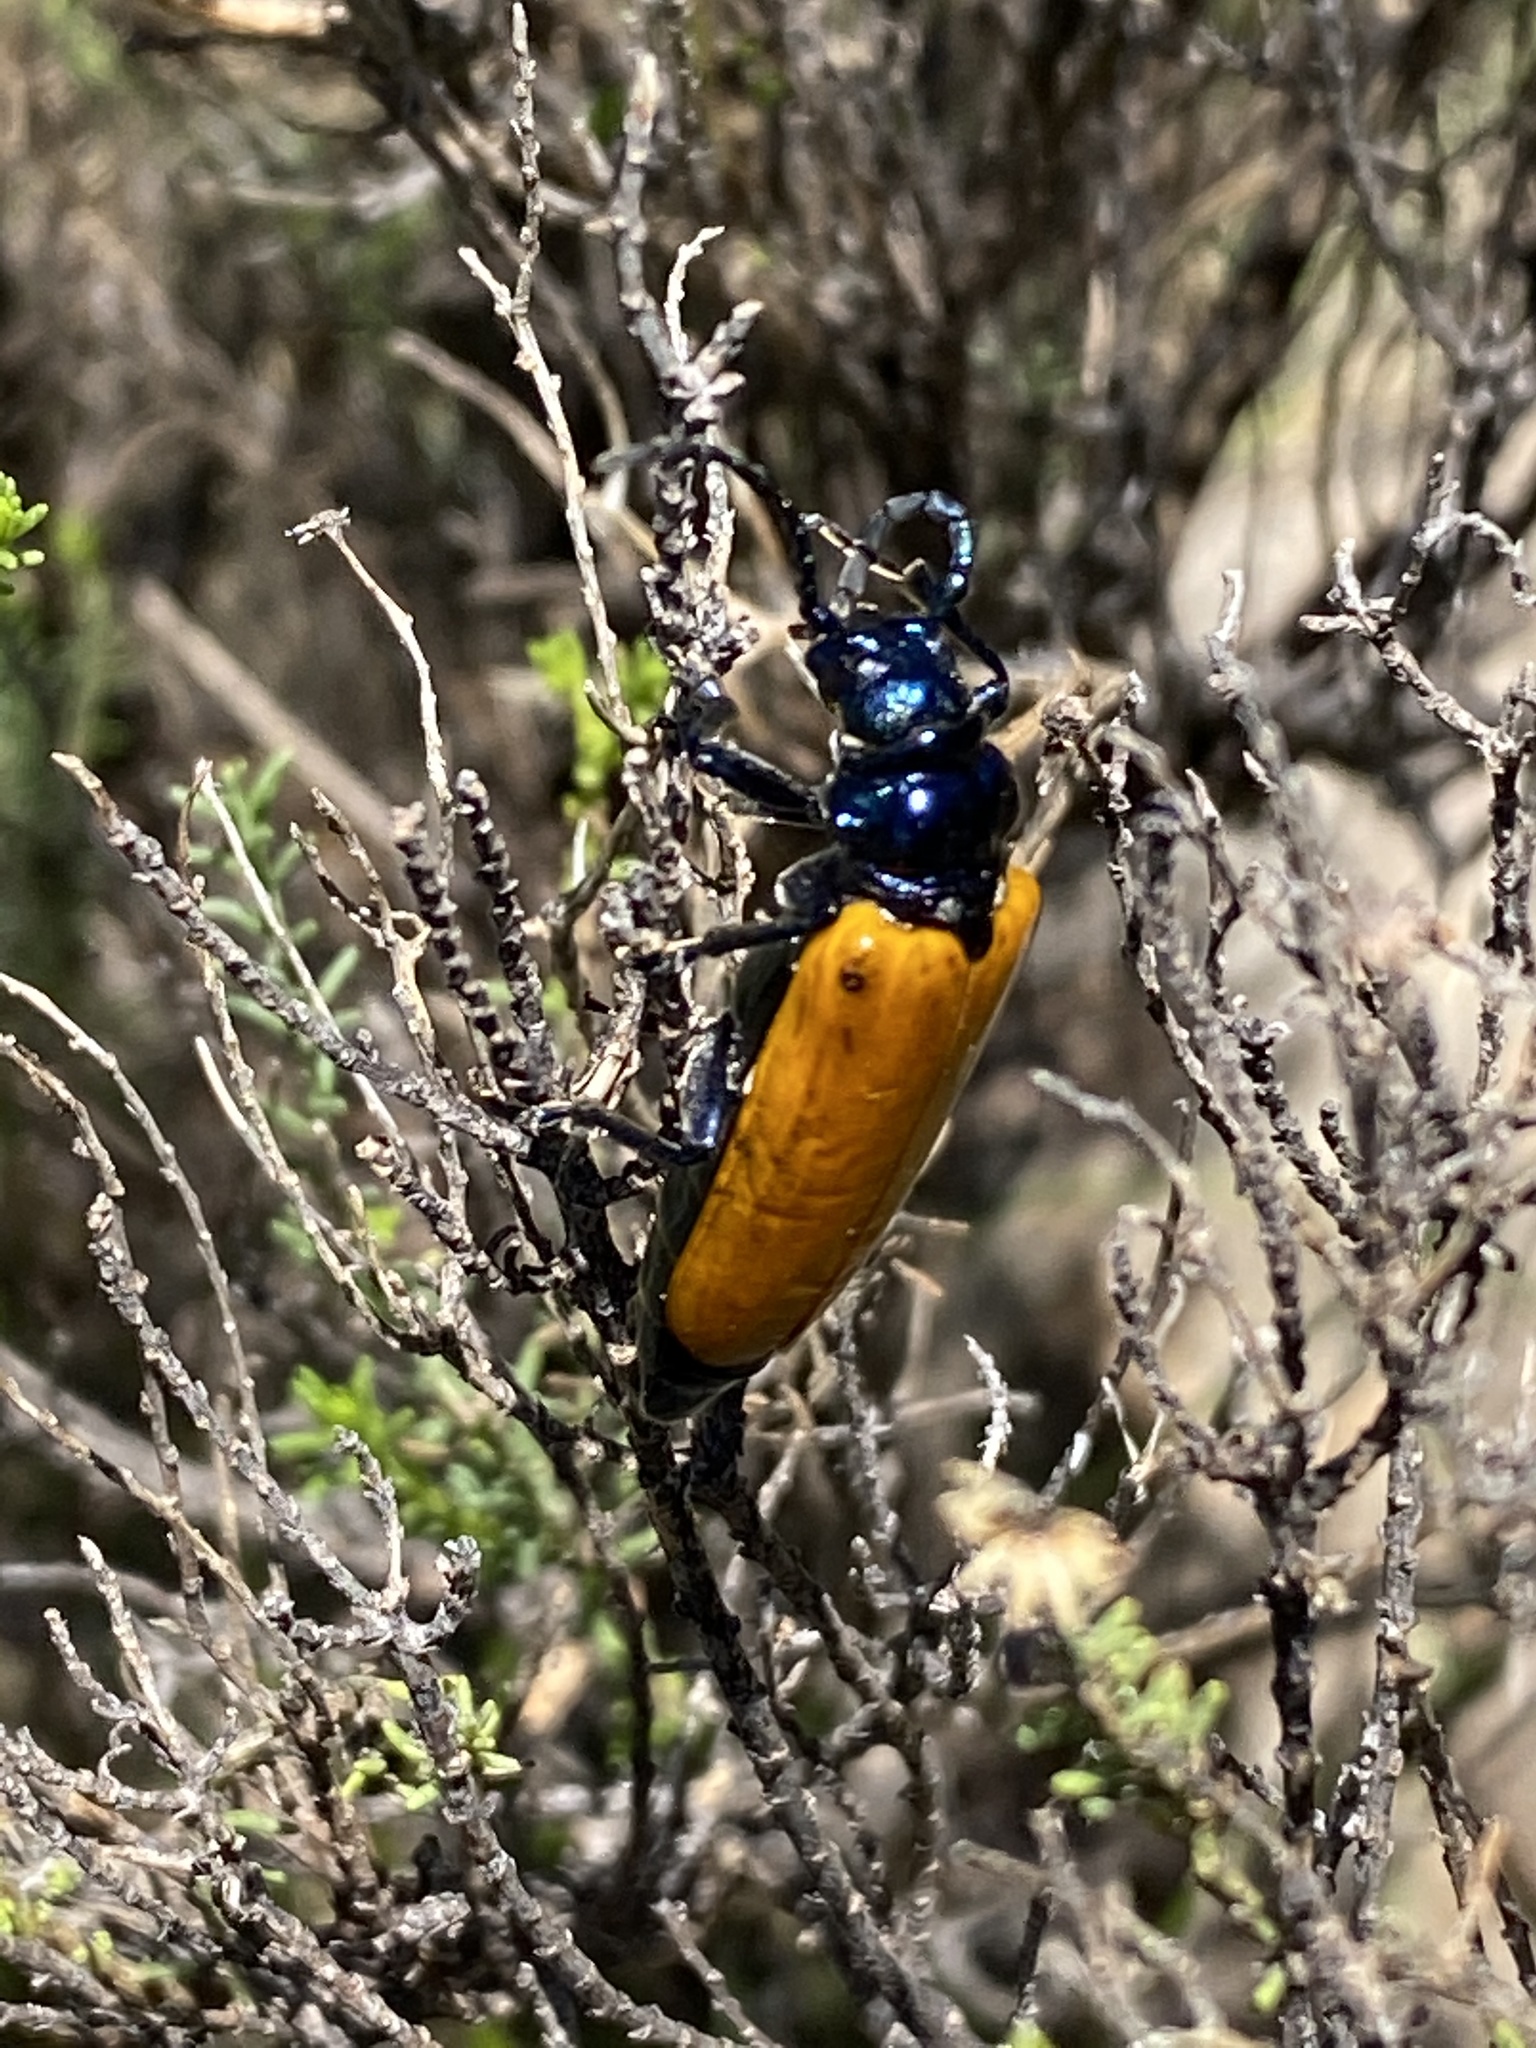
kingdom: Animalia
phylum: Arthropoda
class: Insecta
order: Coleoptera
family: Cerambycidae
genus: Dorcasomus
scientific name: Dorcasomus ebulinus
